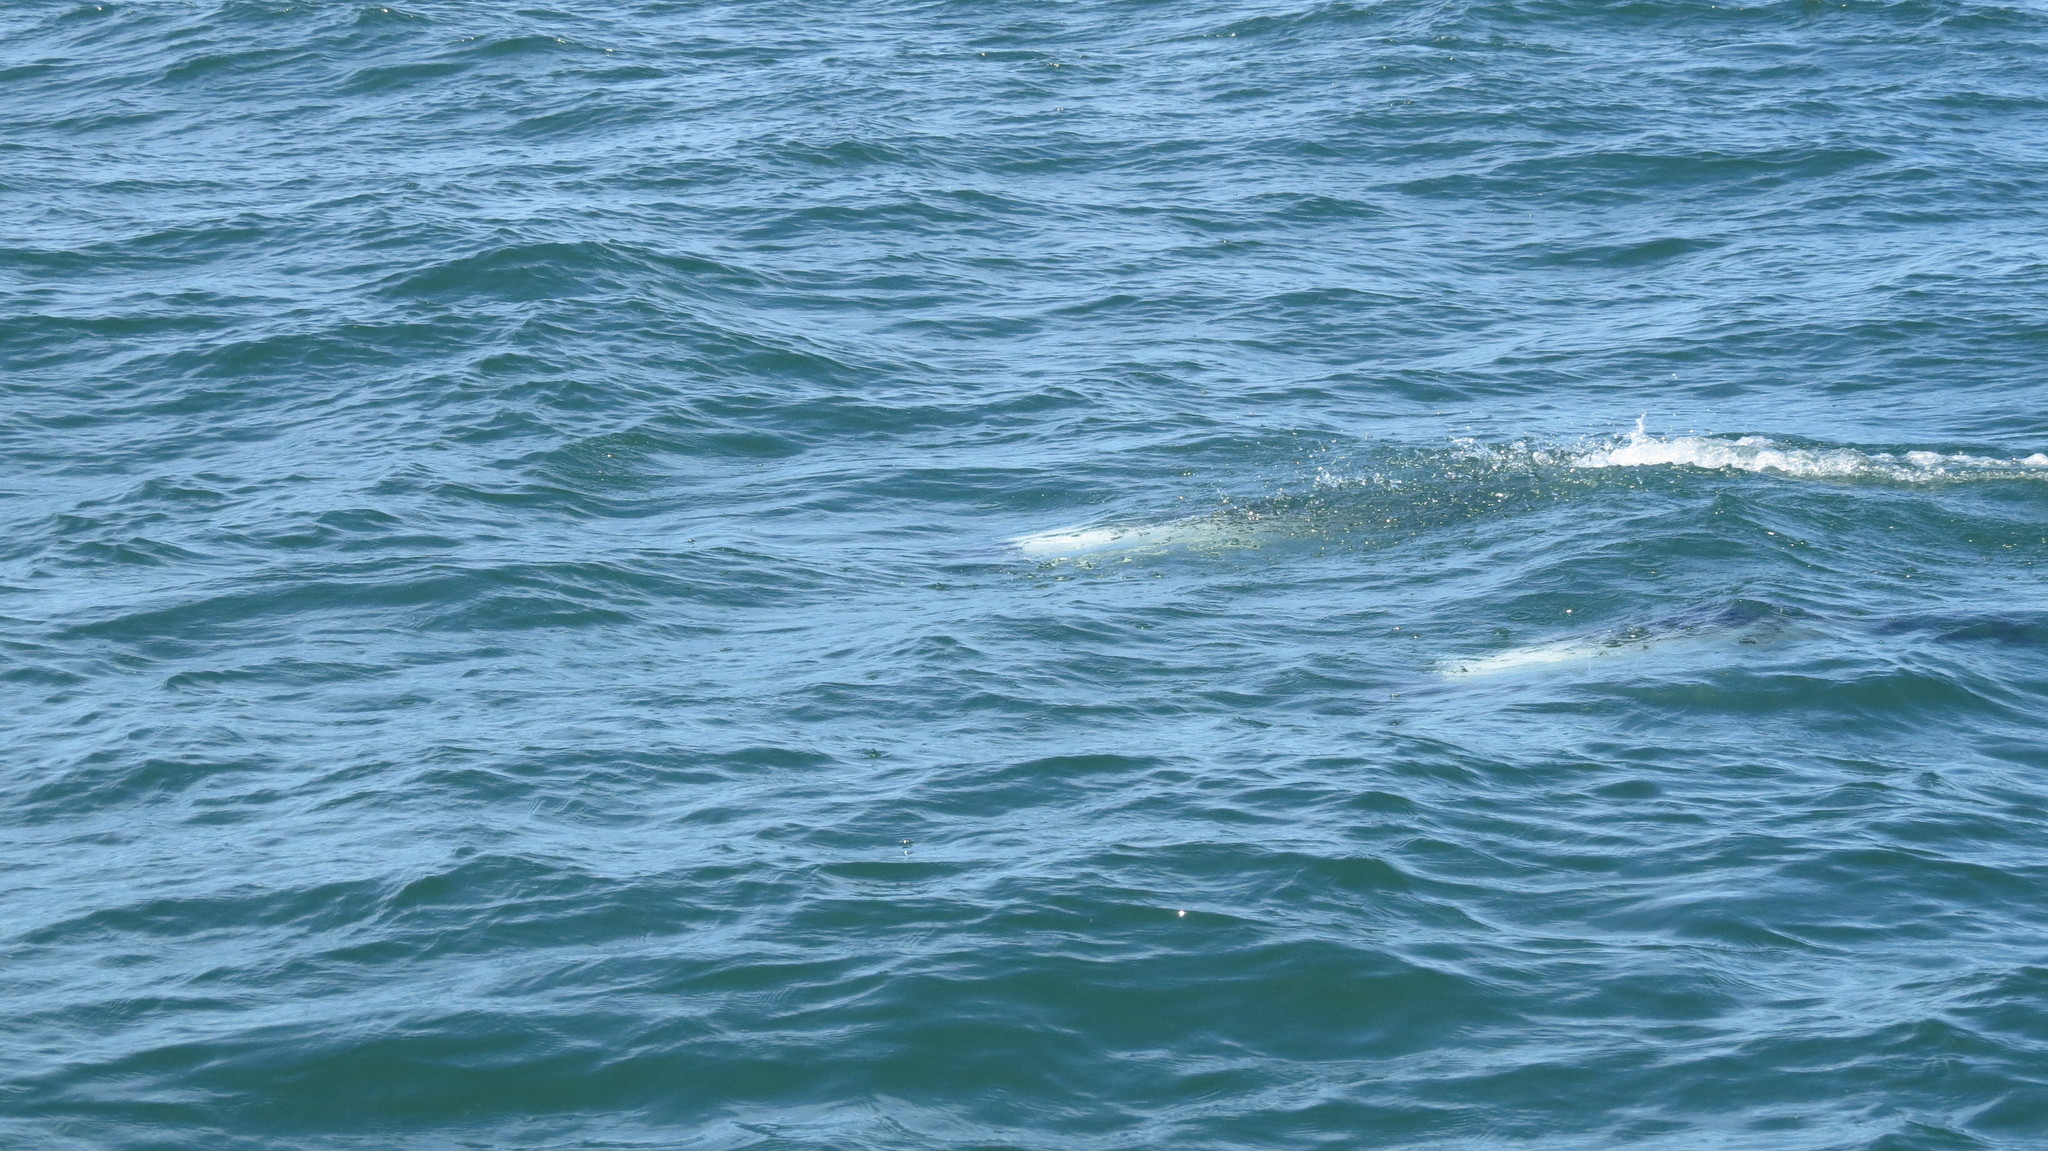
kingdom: Animalia
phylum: Chordata
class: Mammalia
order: Cetacea
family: Delphinidae
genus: Cephalorhynchus
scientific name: Cephalorhynchus commersonii
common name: Commerson's dolphin
